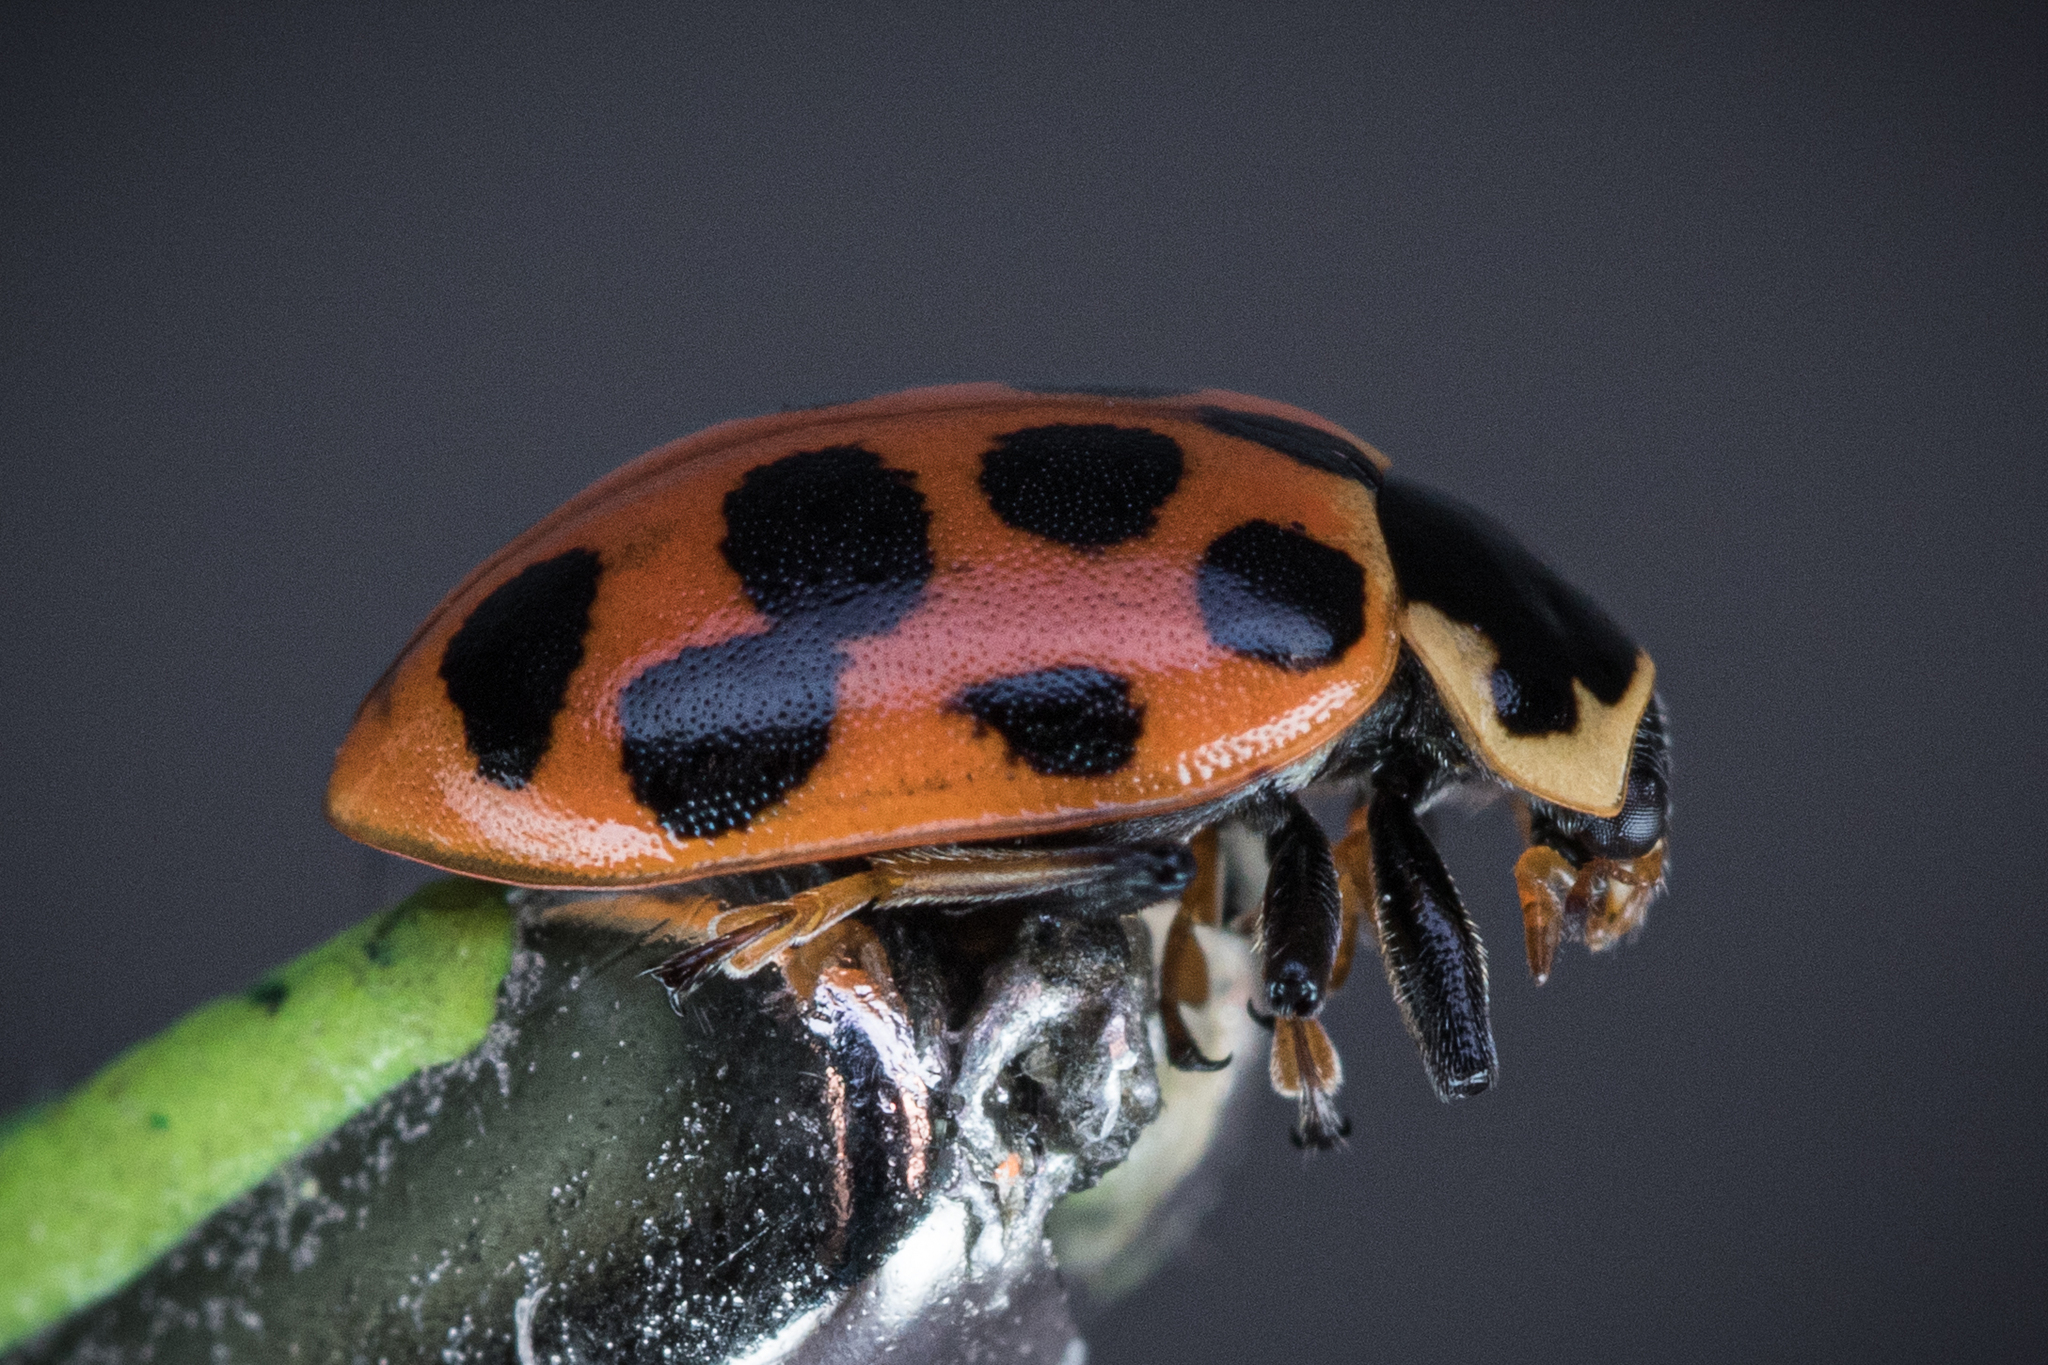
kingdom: Animalia
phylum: Arthropoda
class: Insecta
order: Coleoptera
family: Coccinellidae
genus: Hippodamia
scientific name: Hippodamia tredecimpunctata
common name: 13-spot ladybird
